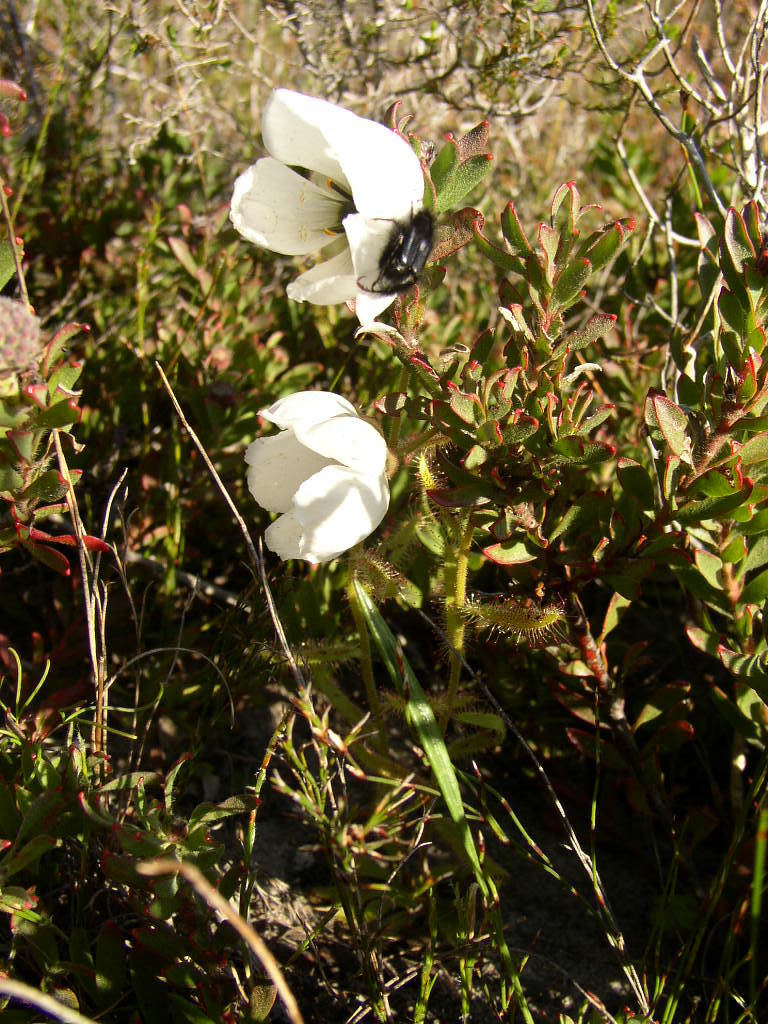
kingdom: Plantae
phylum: Tracheophyta
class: Magnoliopsida
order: Caryophyllales
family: Droseraceae
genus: Drosera
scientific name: Drosera cistiflora
